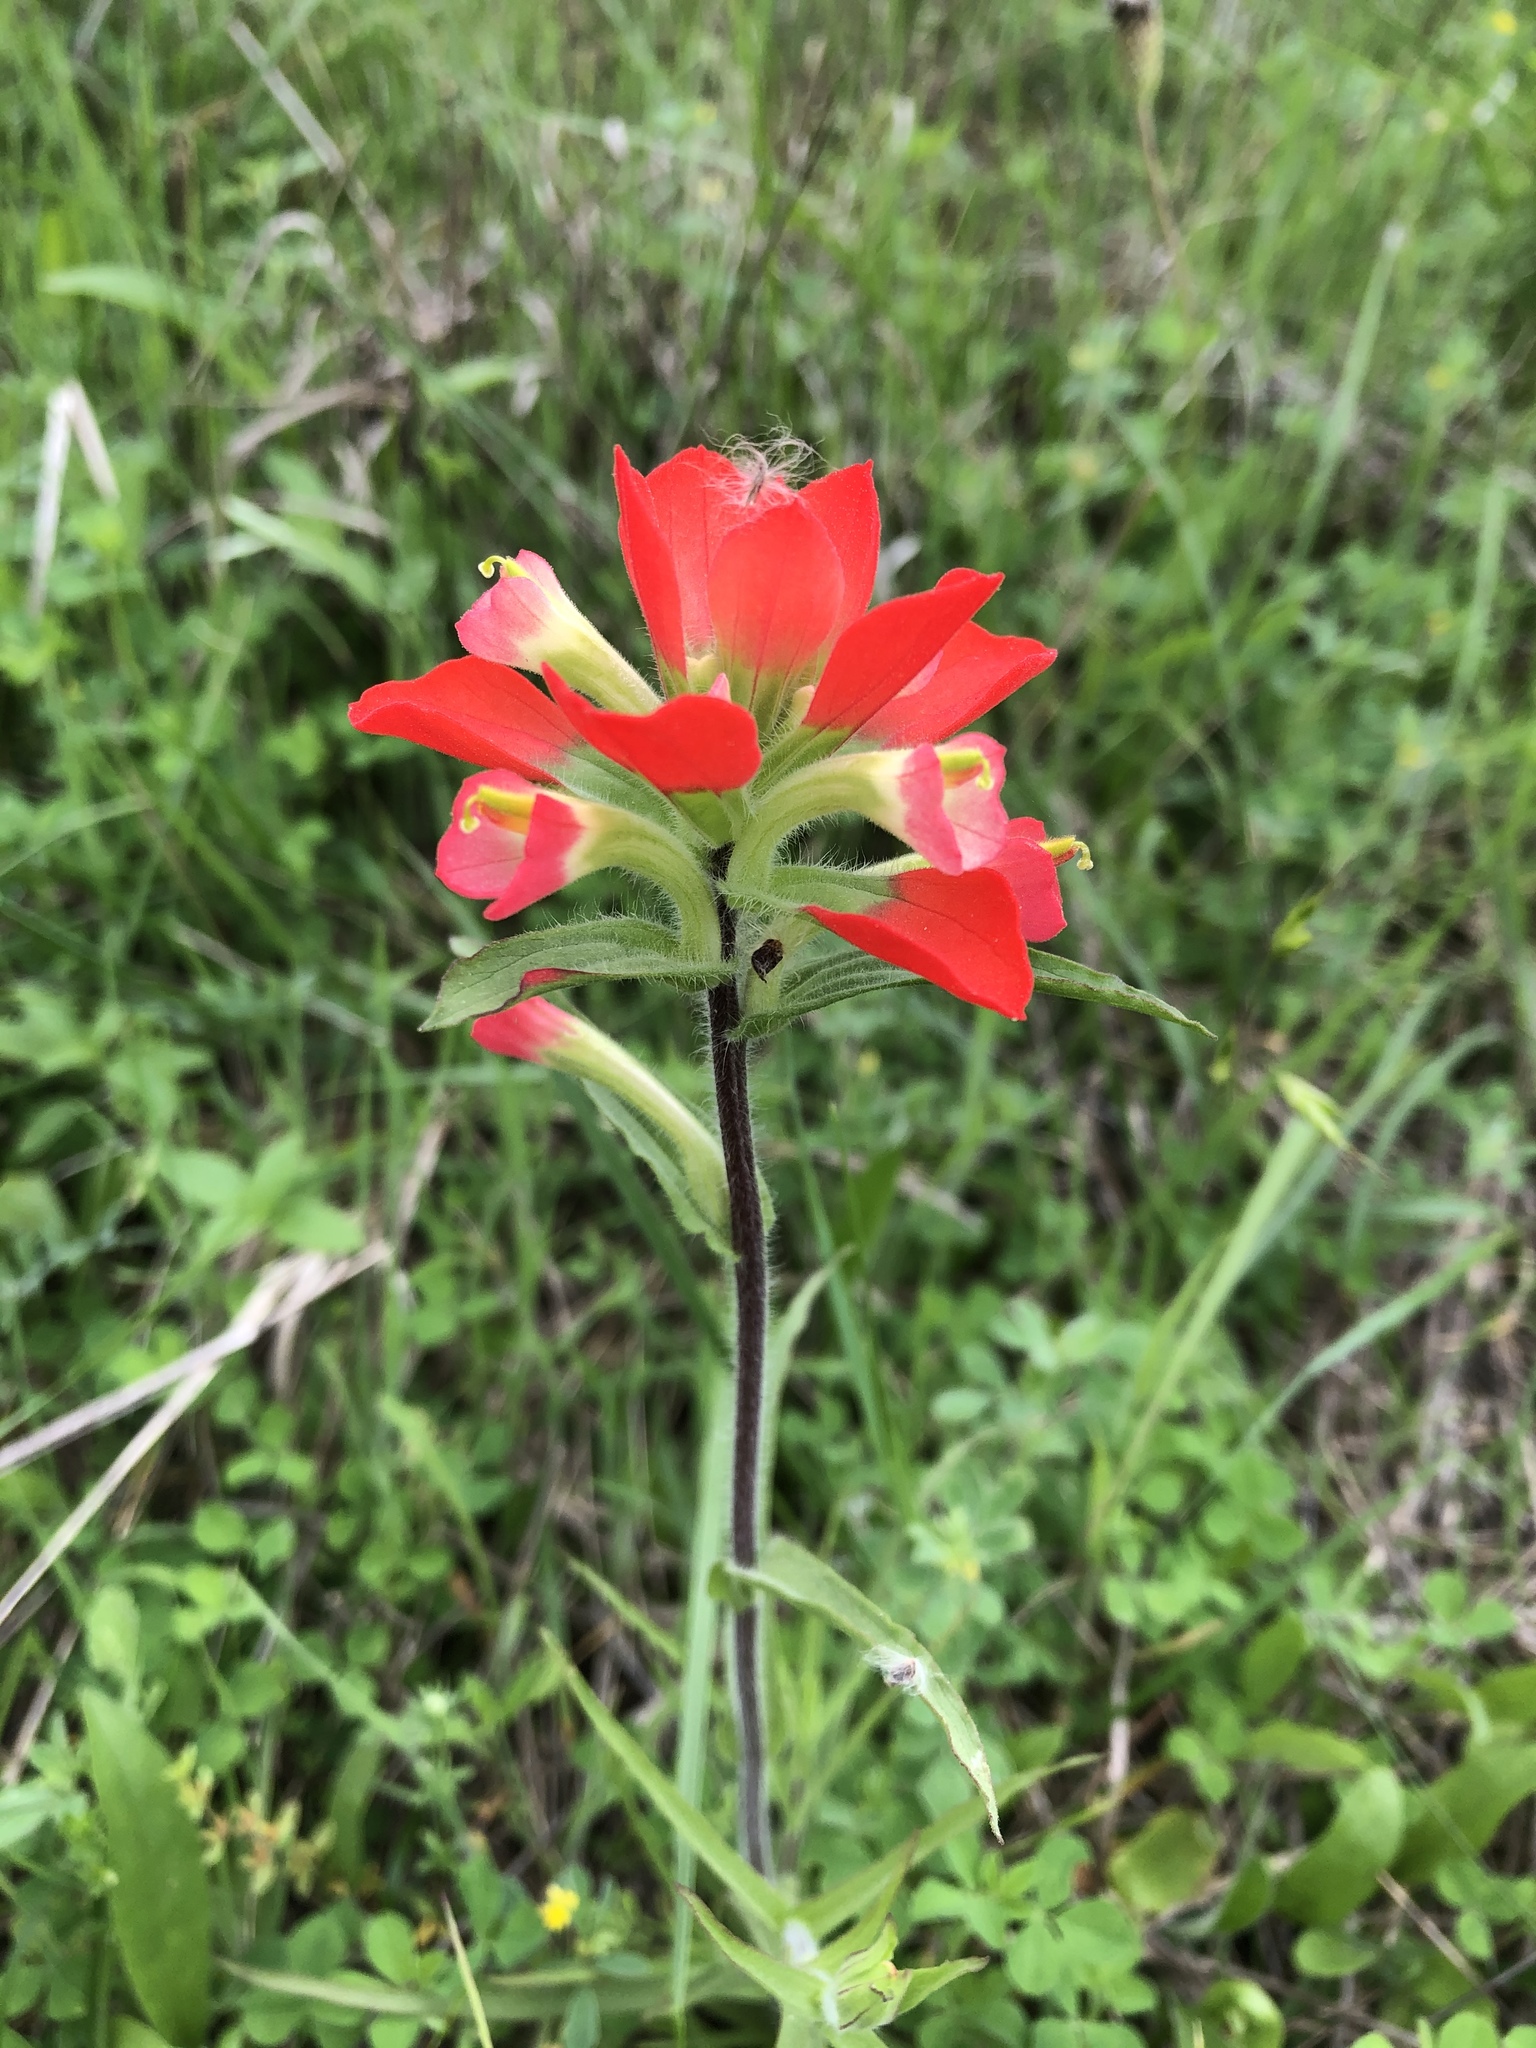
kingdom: Plantae
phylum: Tracheophyta
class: Magnoliopsida
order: Lamiales
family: Orobanchaceae
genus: Castilleja
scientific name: Castilleja indivisa
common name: Texas paintbrush
